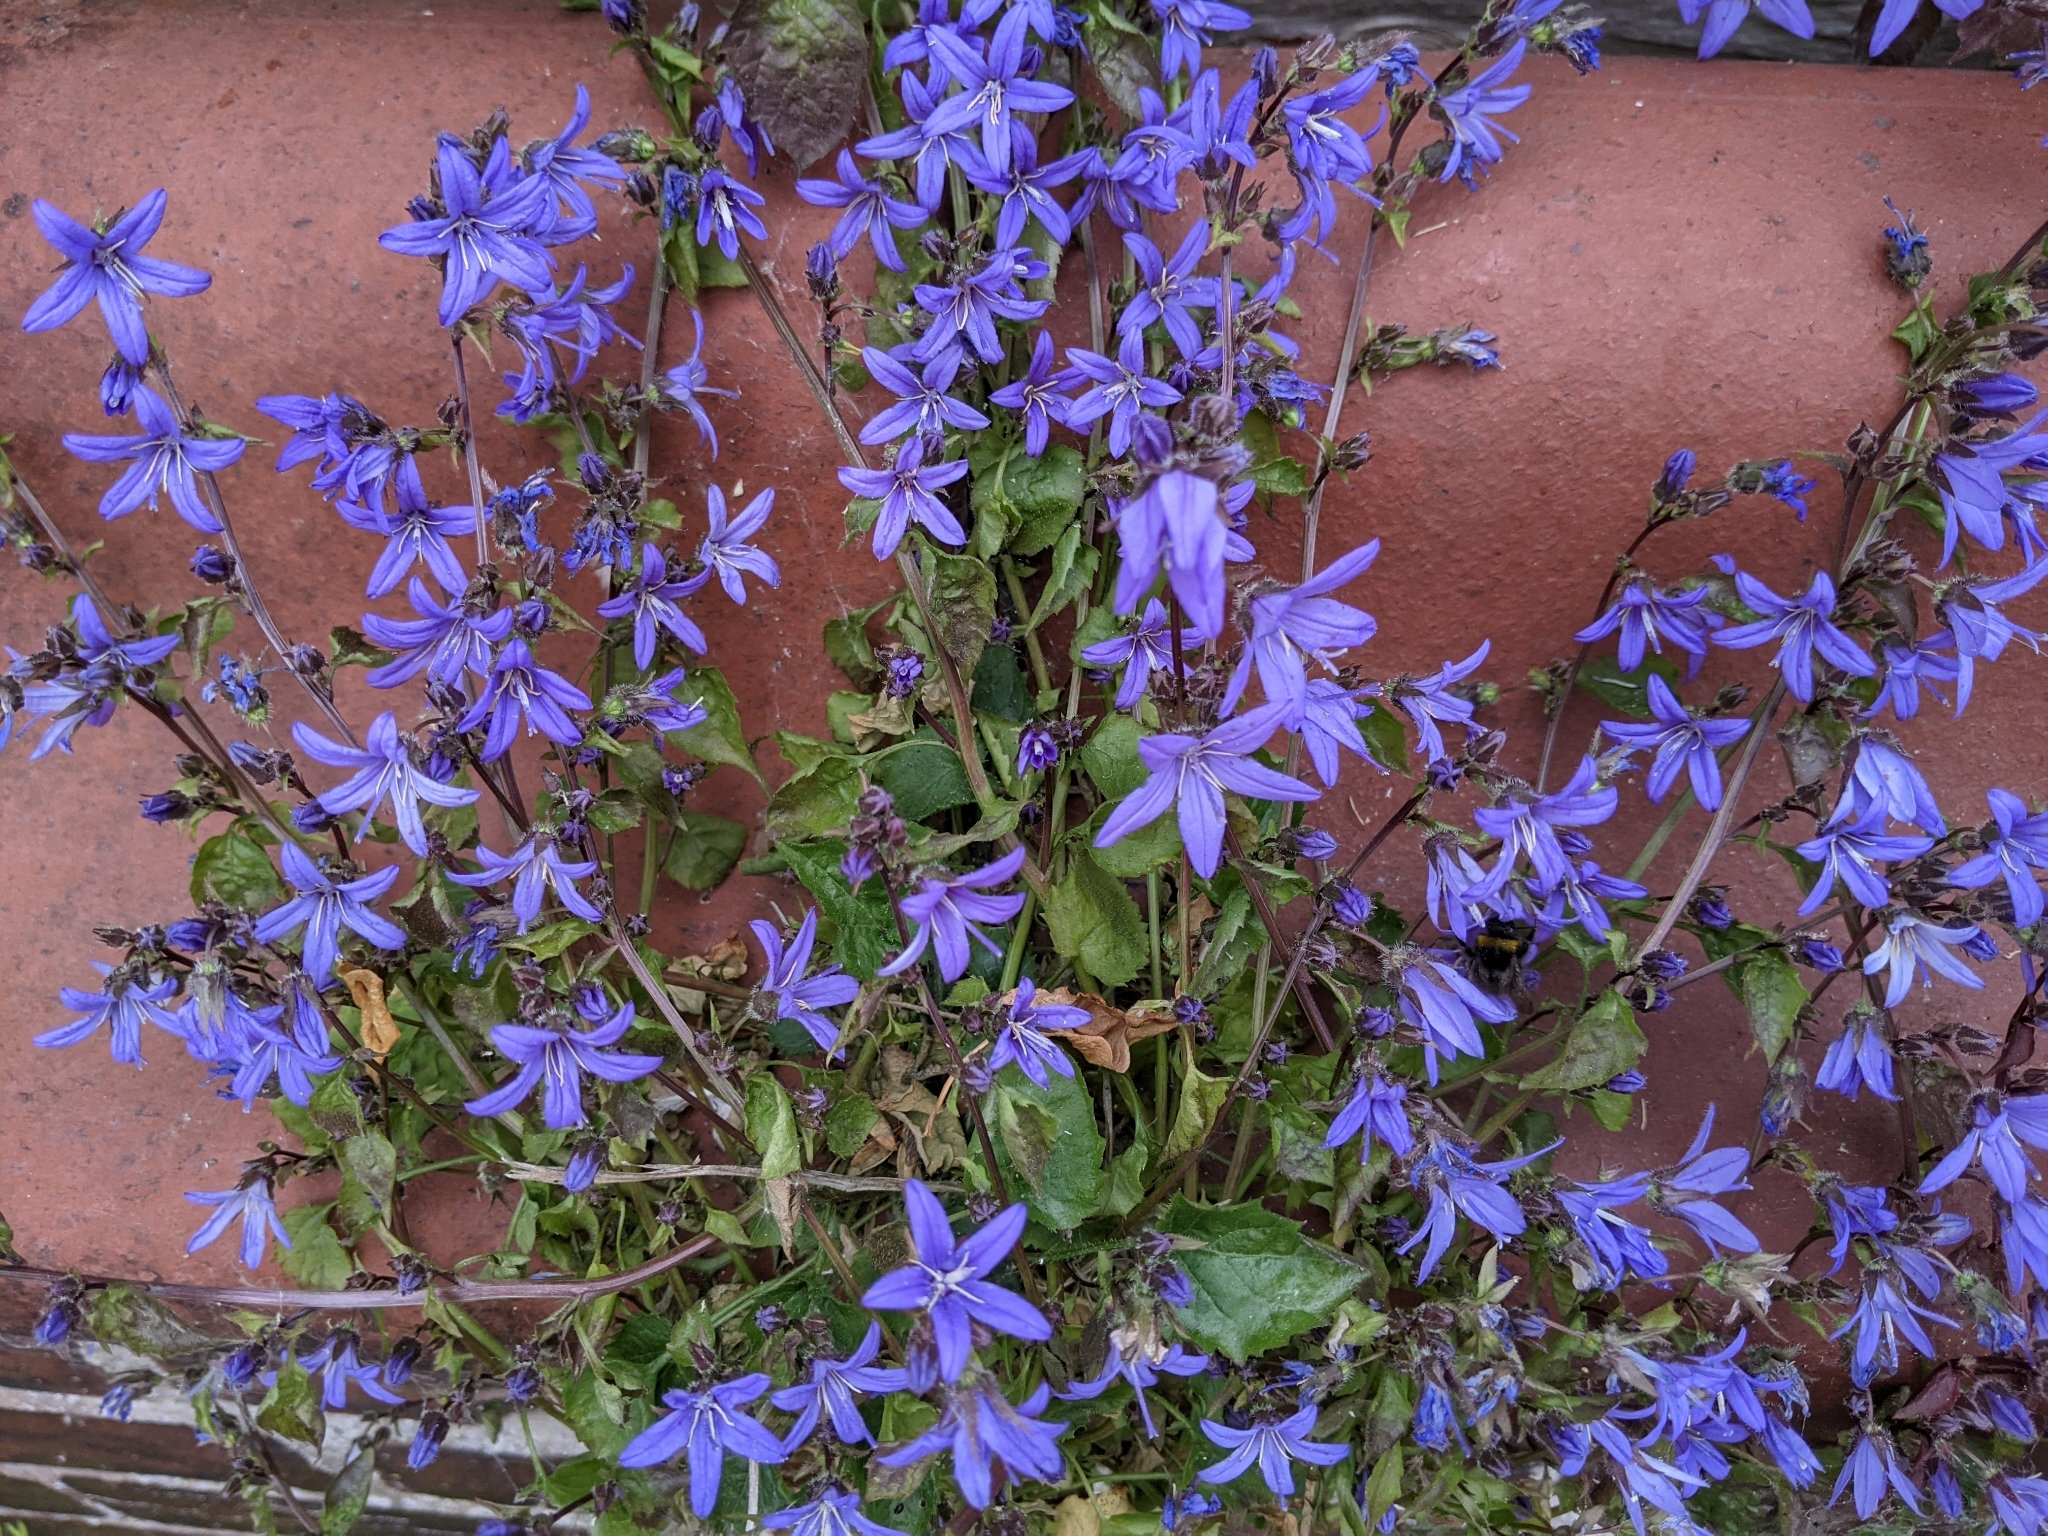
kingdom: Plantae
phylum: Tracheophyta
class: Magnoliopsida
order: Asterales
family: Campanulaceae
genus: Campanula
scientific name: Campanula poscharskyana
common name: Trailing bellflower
